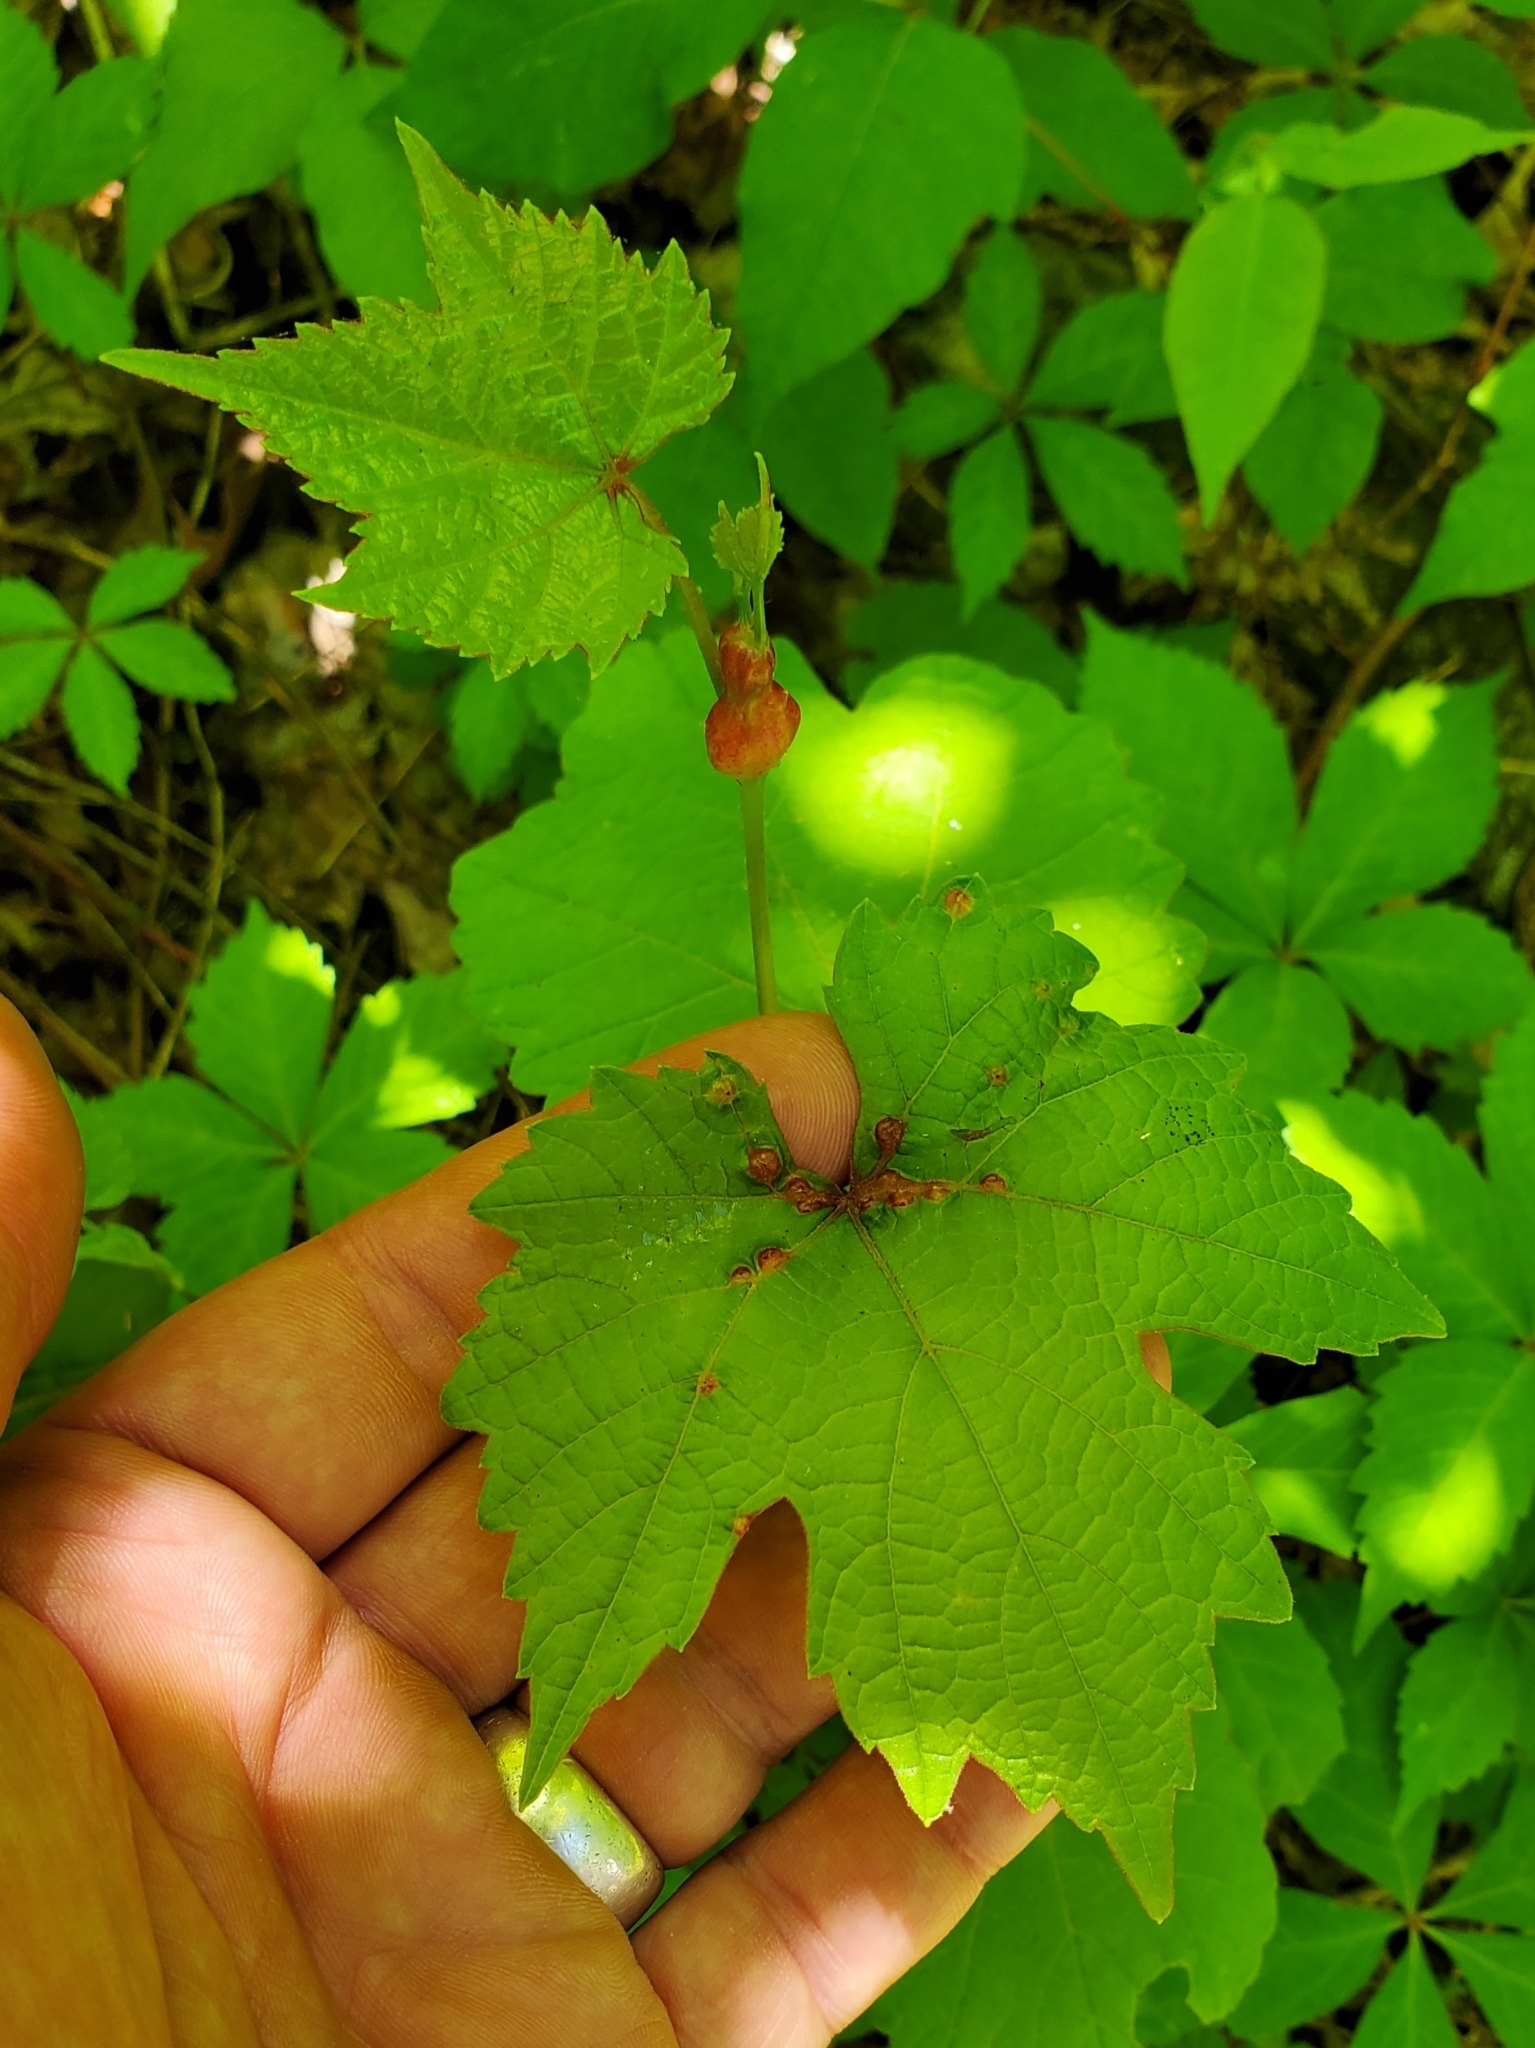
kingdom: Animalia
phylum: Arthropoda
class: Insecta
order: Diptera
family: Cecidomyiidae
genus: Vitisiella
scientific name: Vitisiella brevicauda
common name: Grape tumid gallmaker midge
